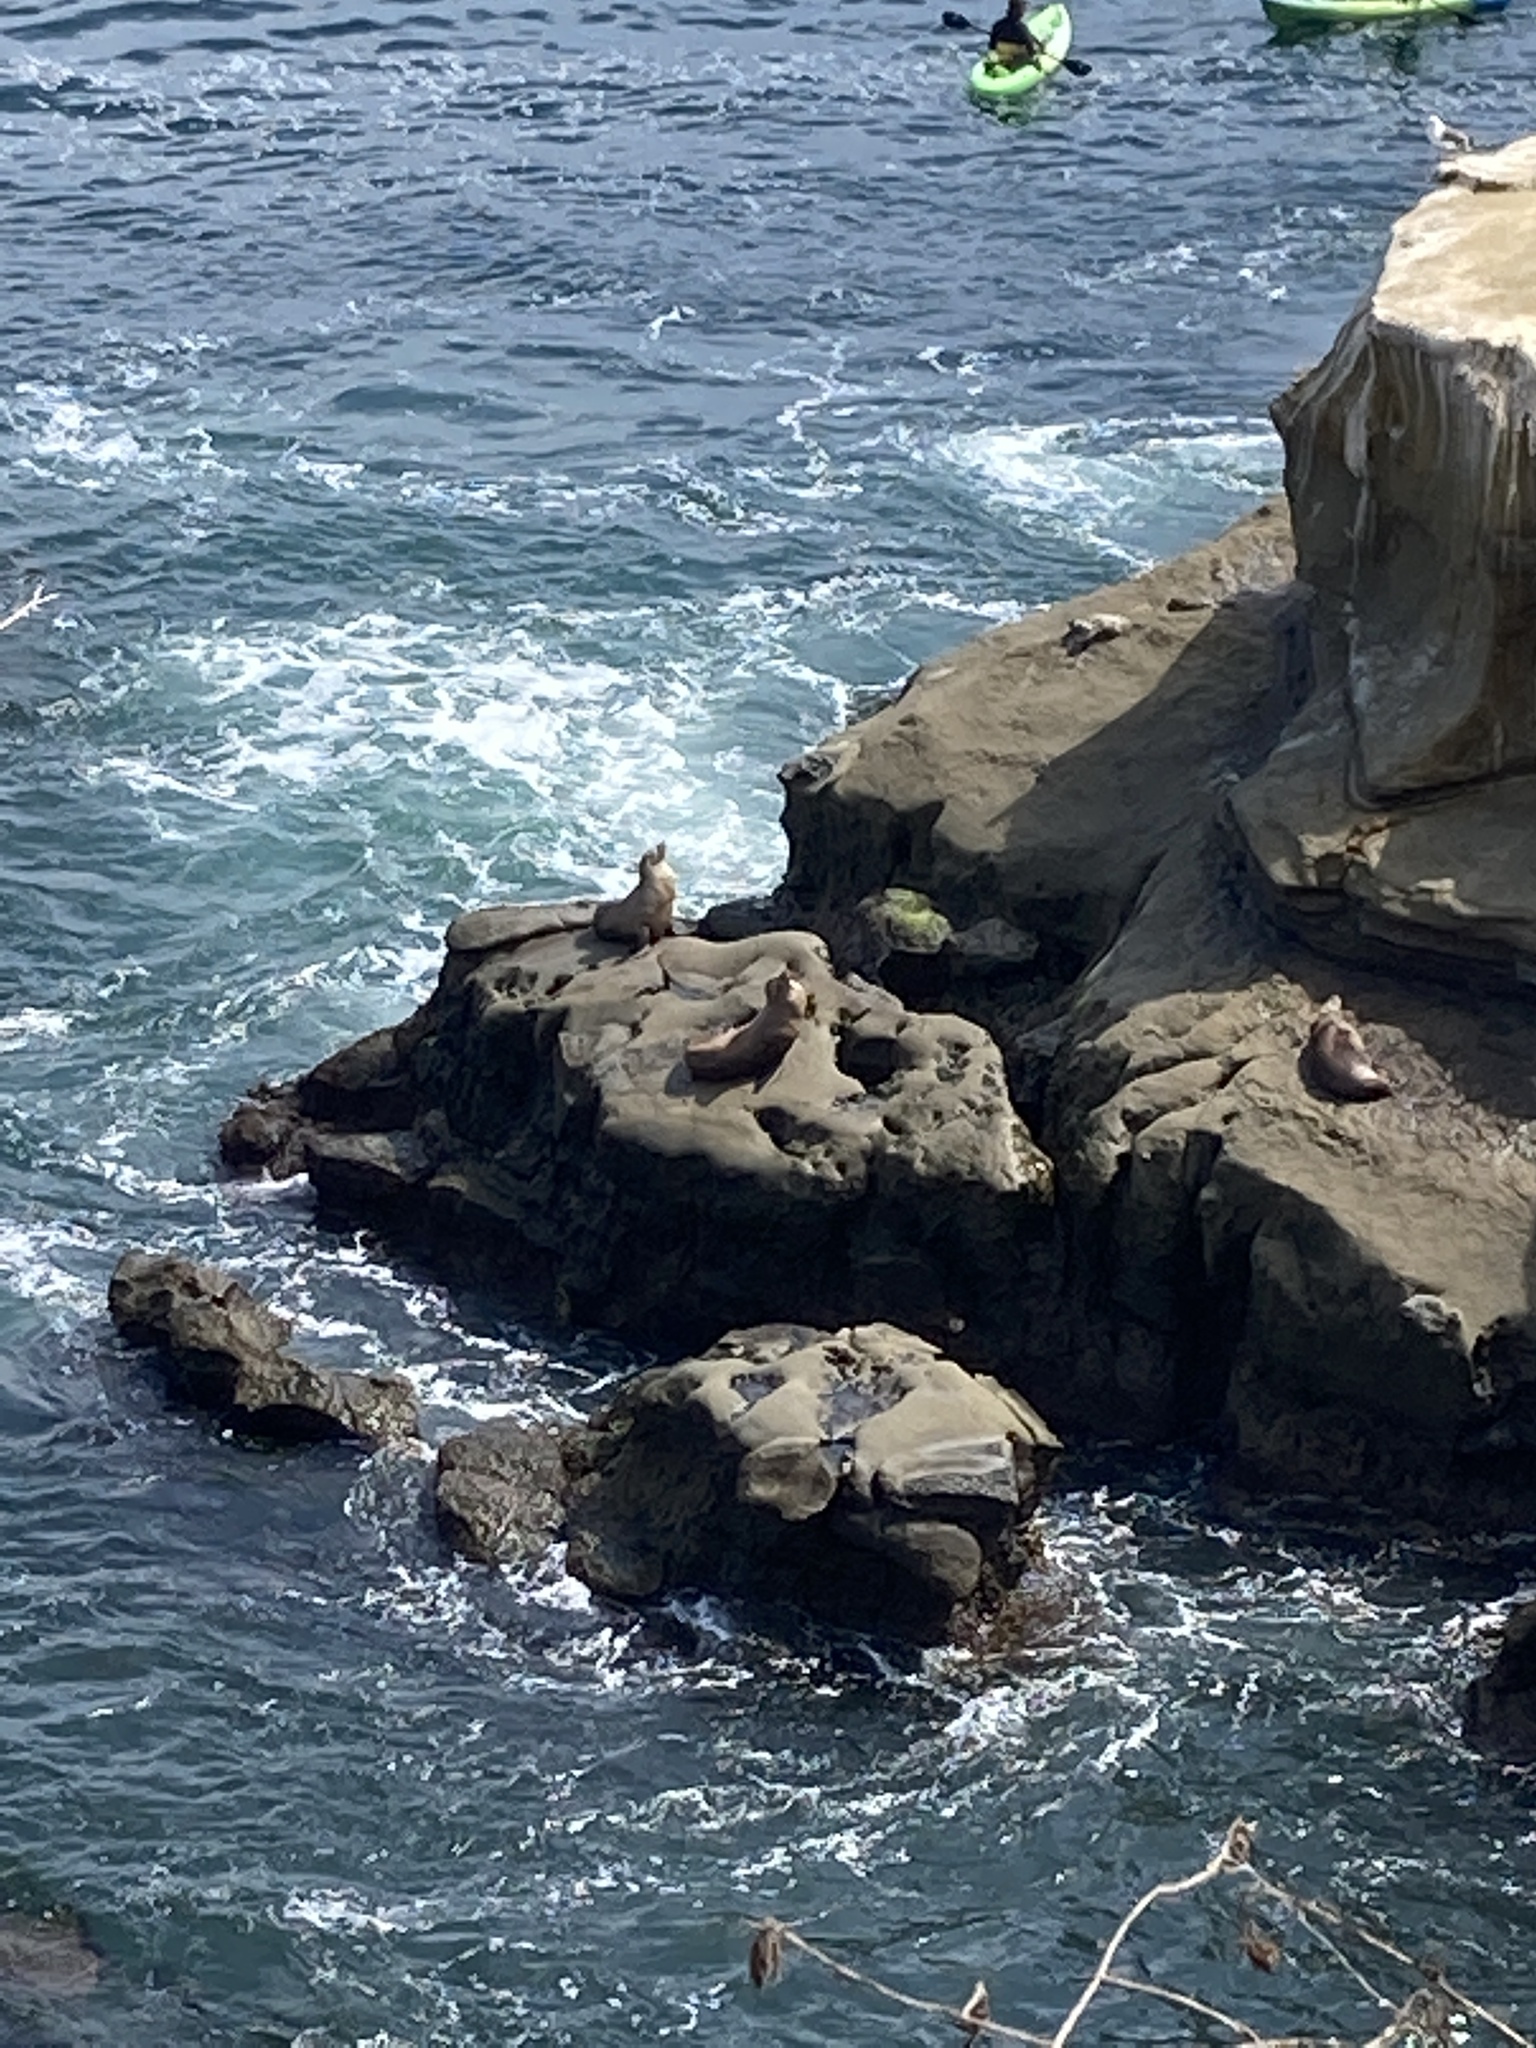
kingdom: Animalia
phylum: Chordata
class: Mammalia
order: Carnivora
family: Otariidae
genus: Zalophus
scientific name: Zalophus californianus
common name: California sea lion
